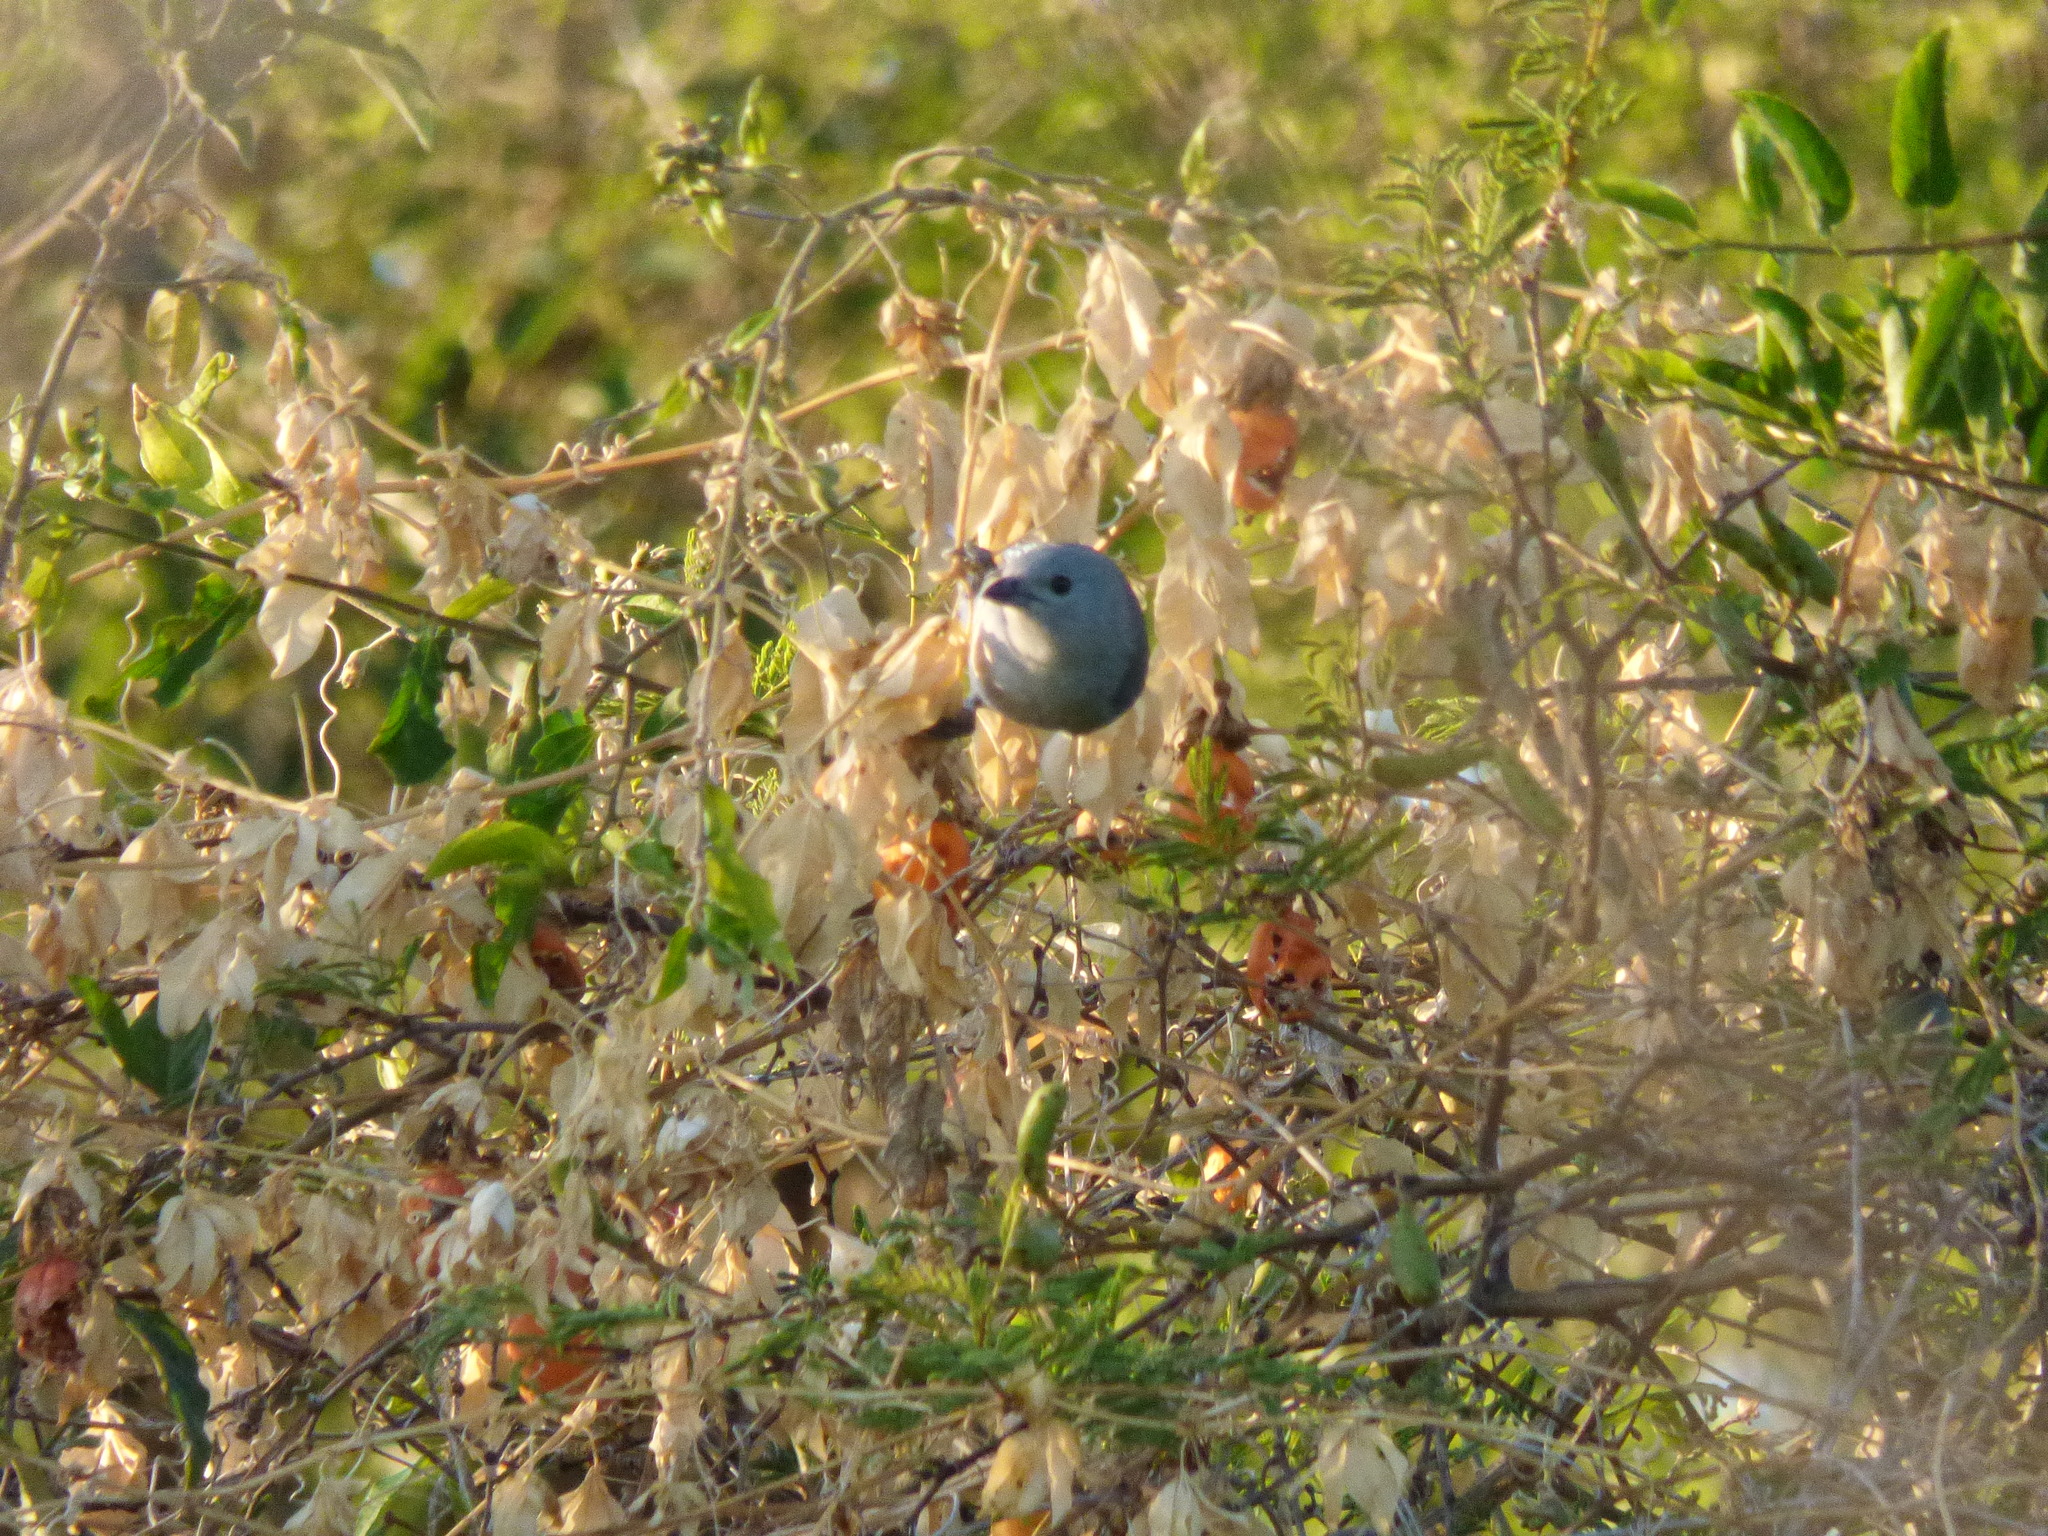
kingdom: Animalia
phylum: Chordata
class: Aves
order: Passeriformes
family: Thraupidae
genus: Thraupis
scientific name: Thraupis sayaca
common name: Sayaca tanager
